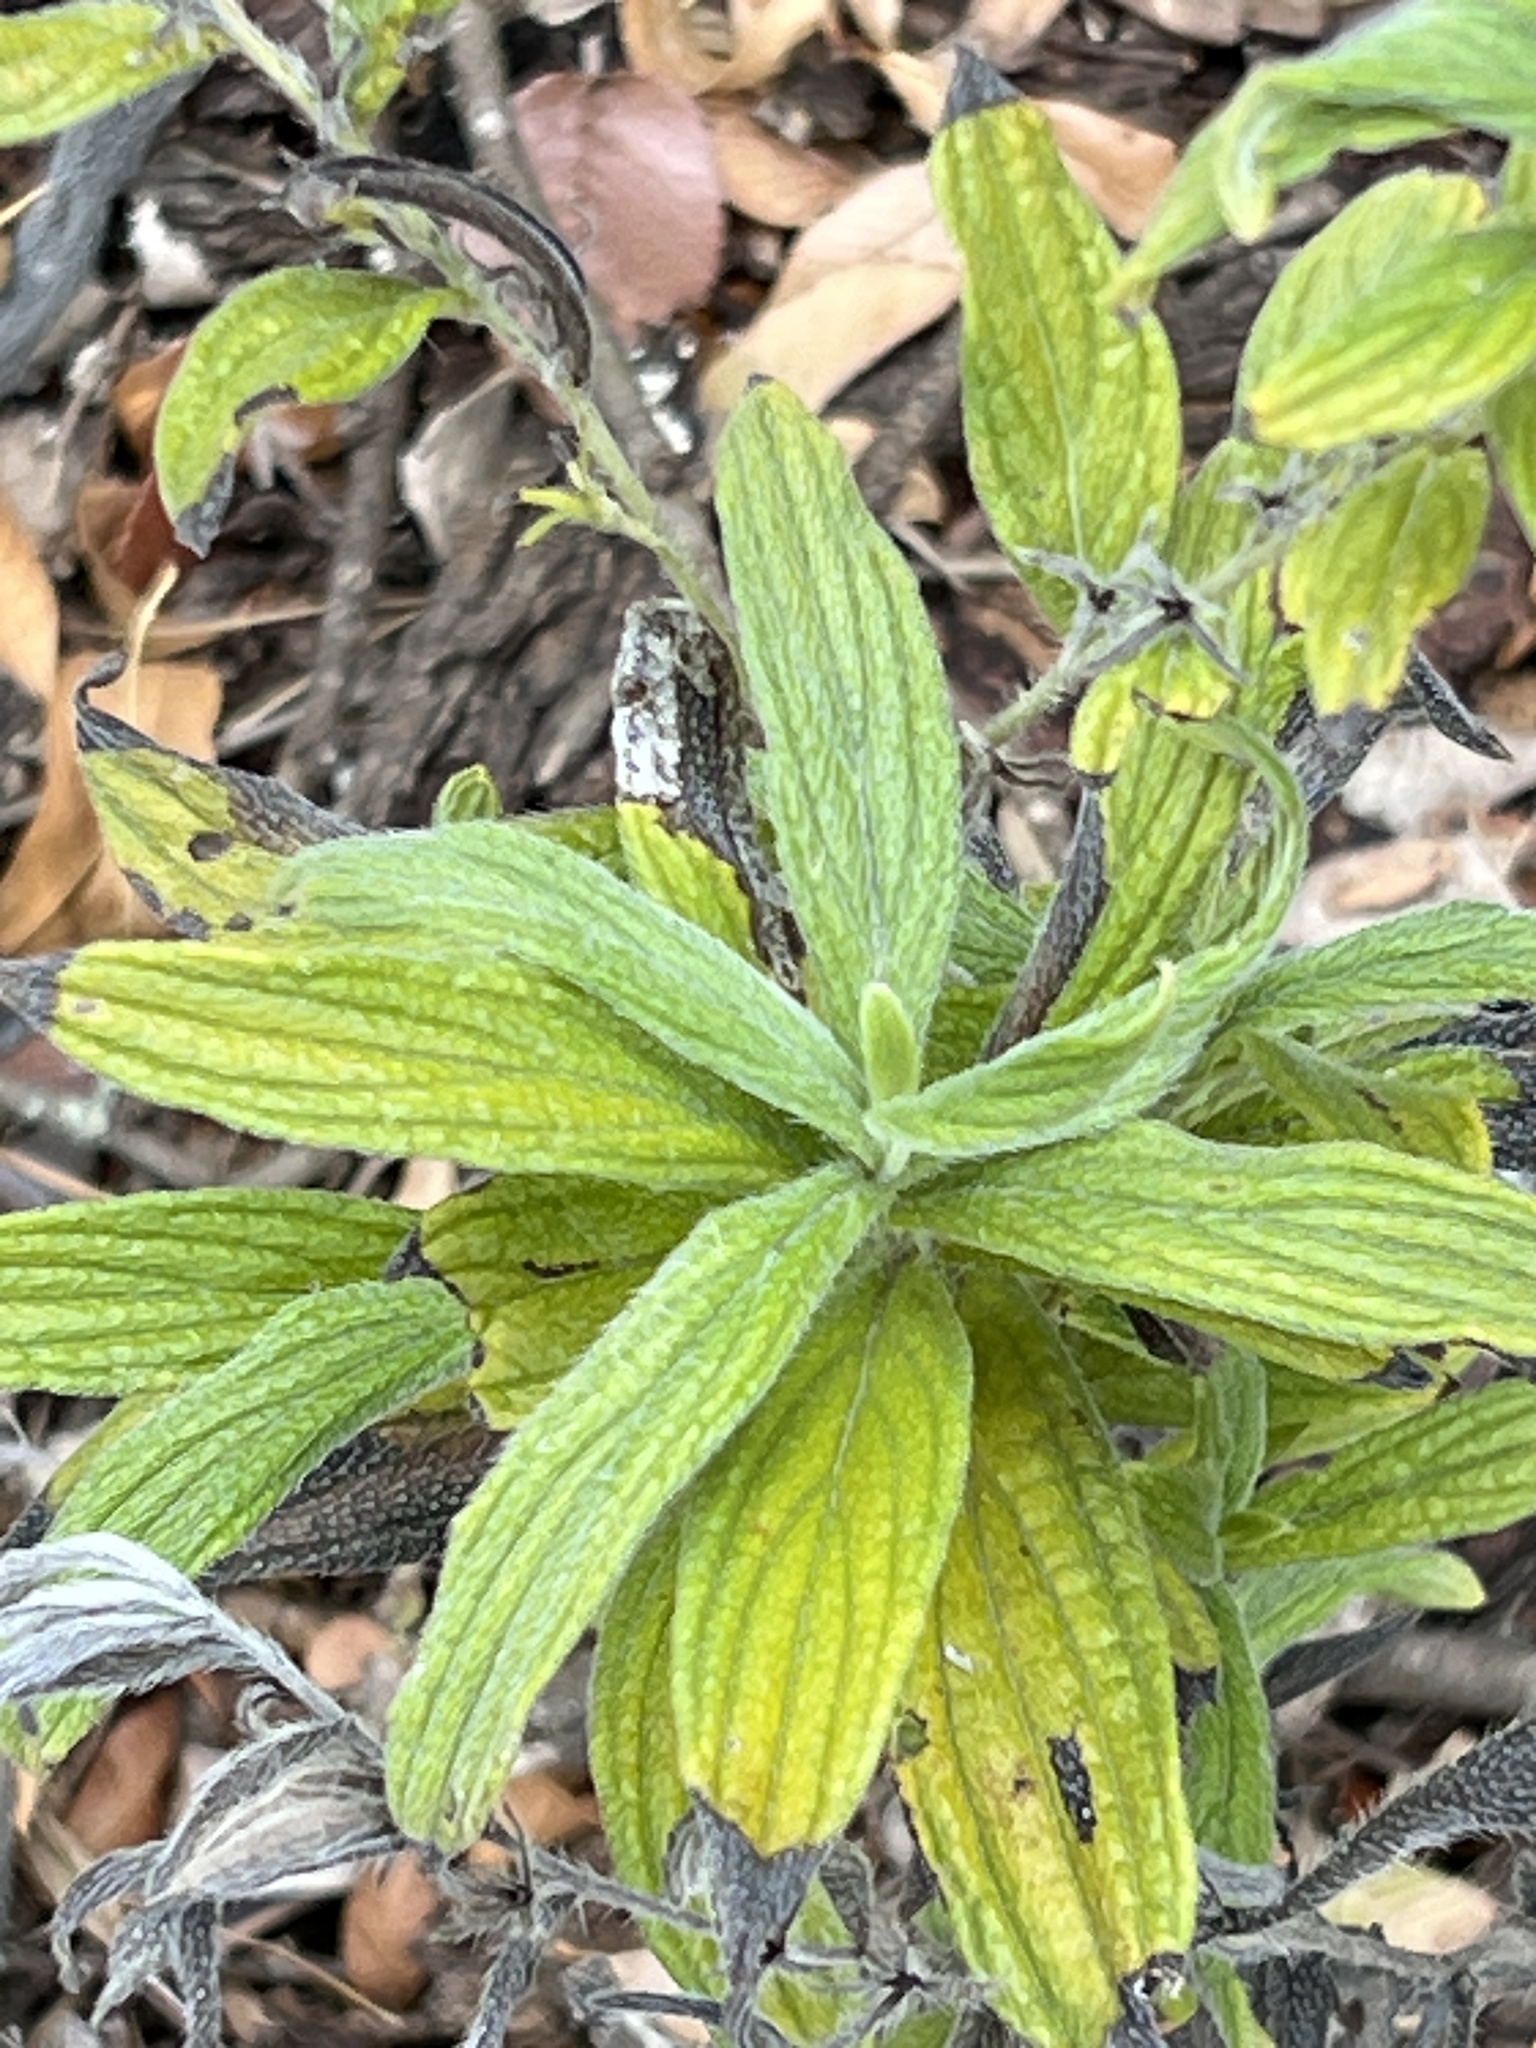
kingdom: Plantae
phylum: Tracheophyta
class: Magnoliopsida
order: Boraginales
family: Boraginaceae
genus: Lithospermum
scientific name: Lithospermum caroliniense
